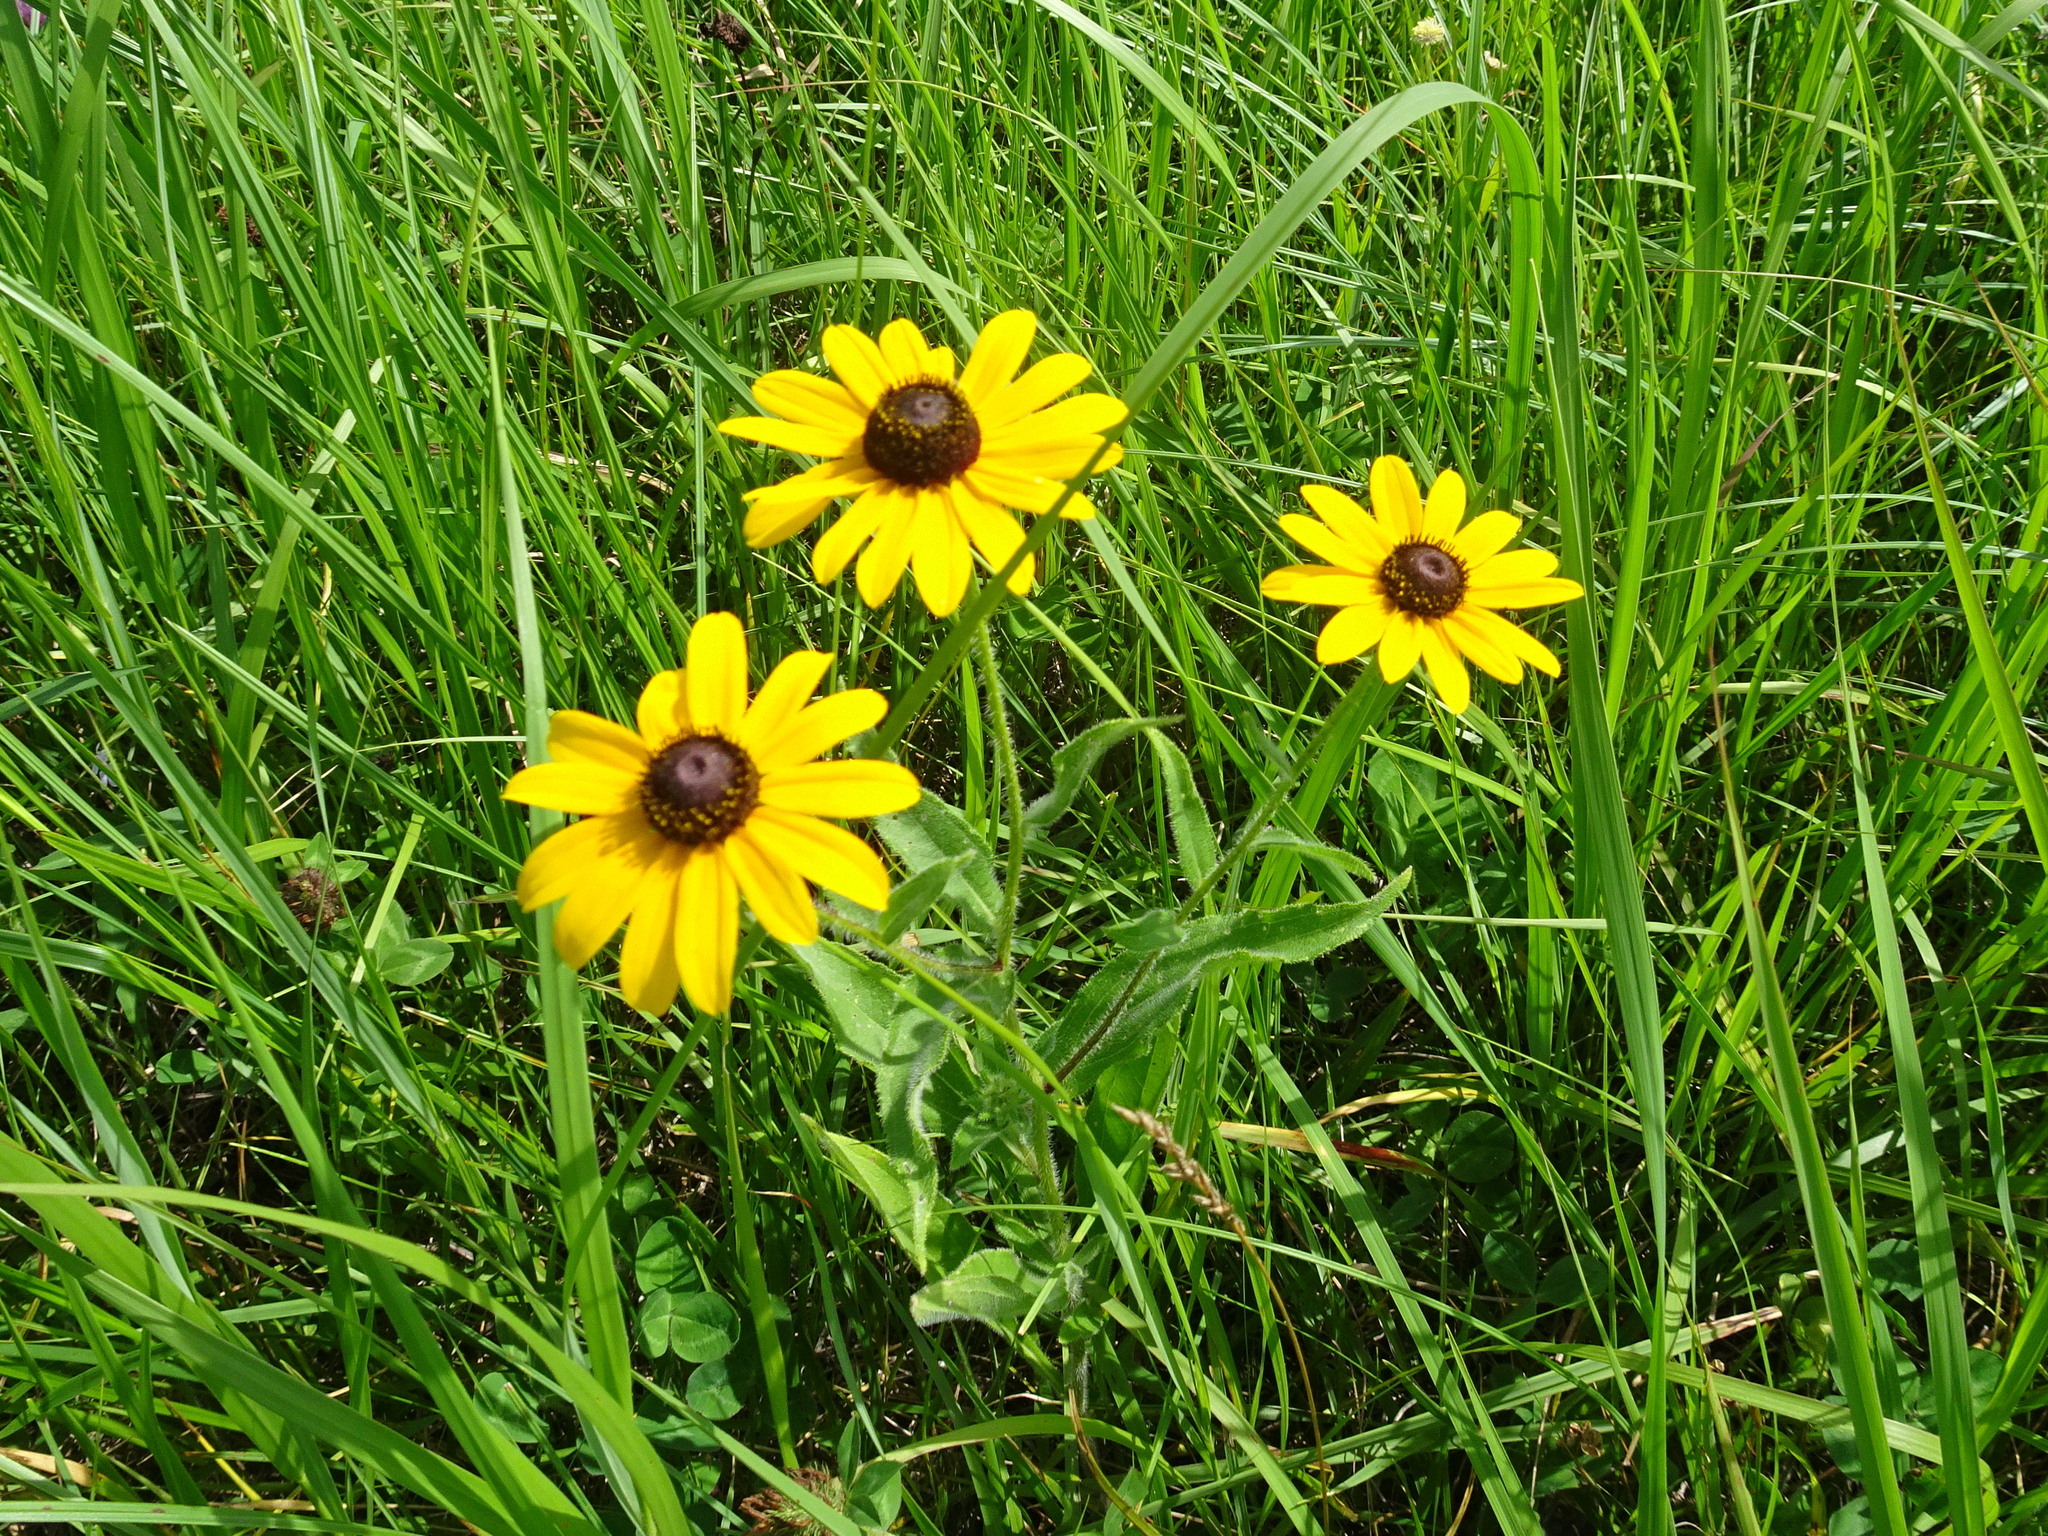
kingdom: Plantae
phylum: Tracheophyta
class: Magnoliopsida
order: Asterales
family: Asteraceae
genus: Rudbeckia
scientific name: Rudbeckia hirta
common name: Black-eyed-susan
